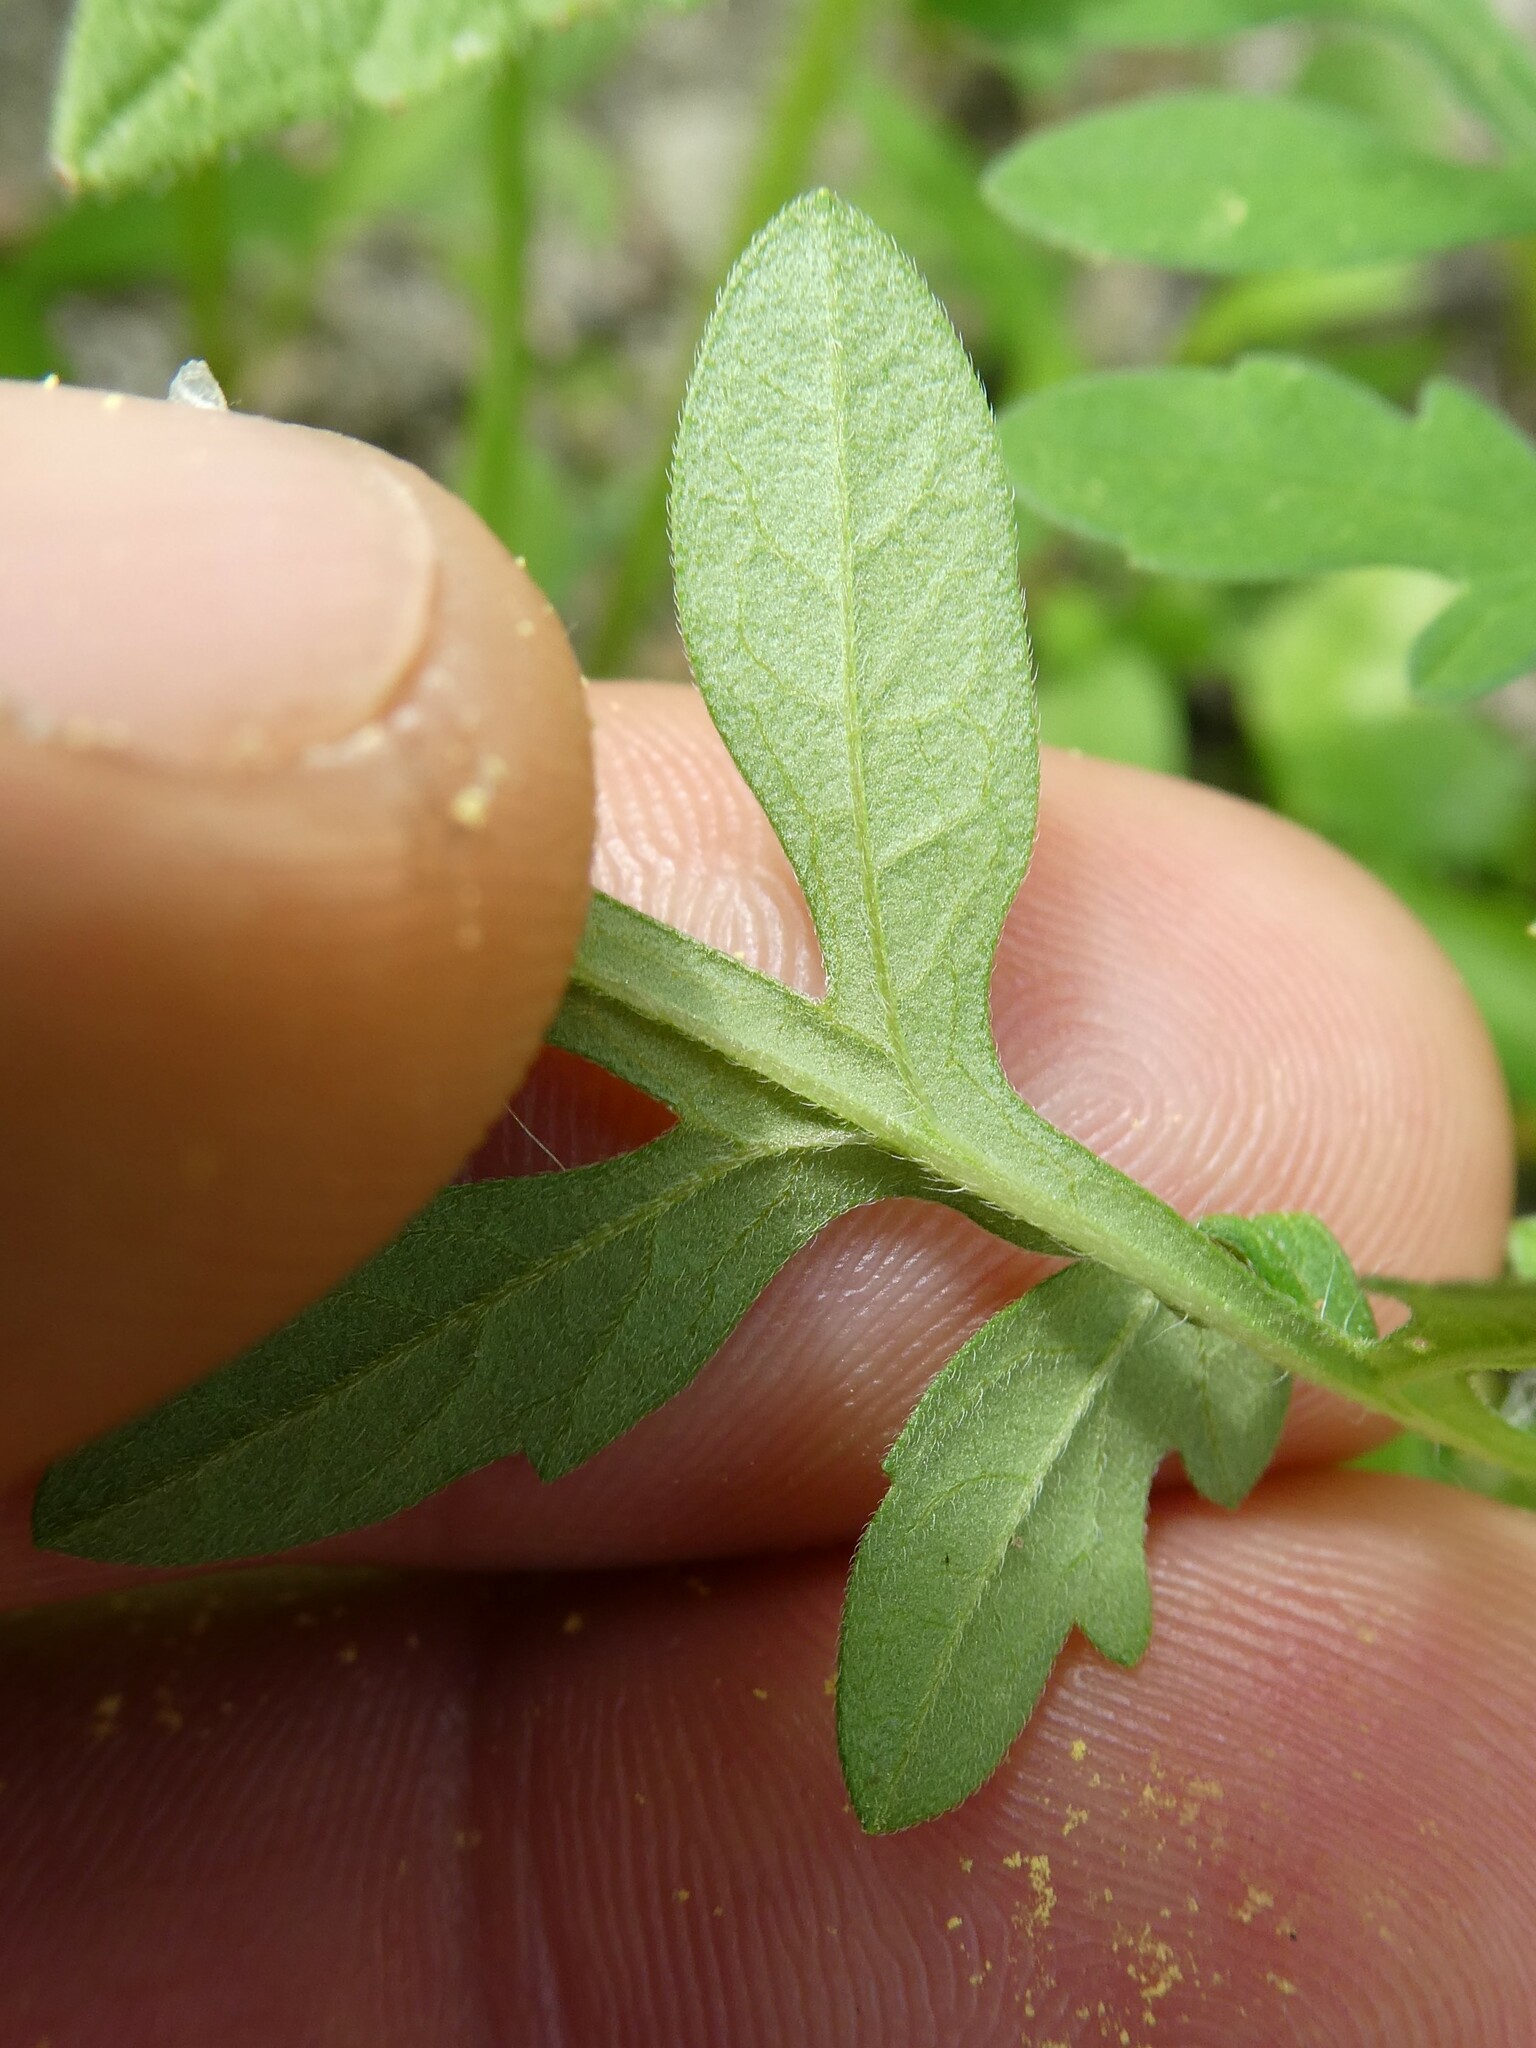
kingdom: Plantae
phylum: Tracheophyta
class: Magnoliopsida
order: Asterales
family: Asteraceae
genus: Ambrosia
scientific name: Ambrosia artemisiifolia
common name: Annual ragweed
